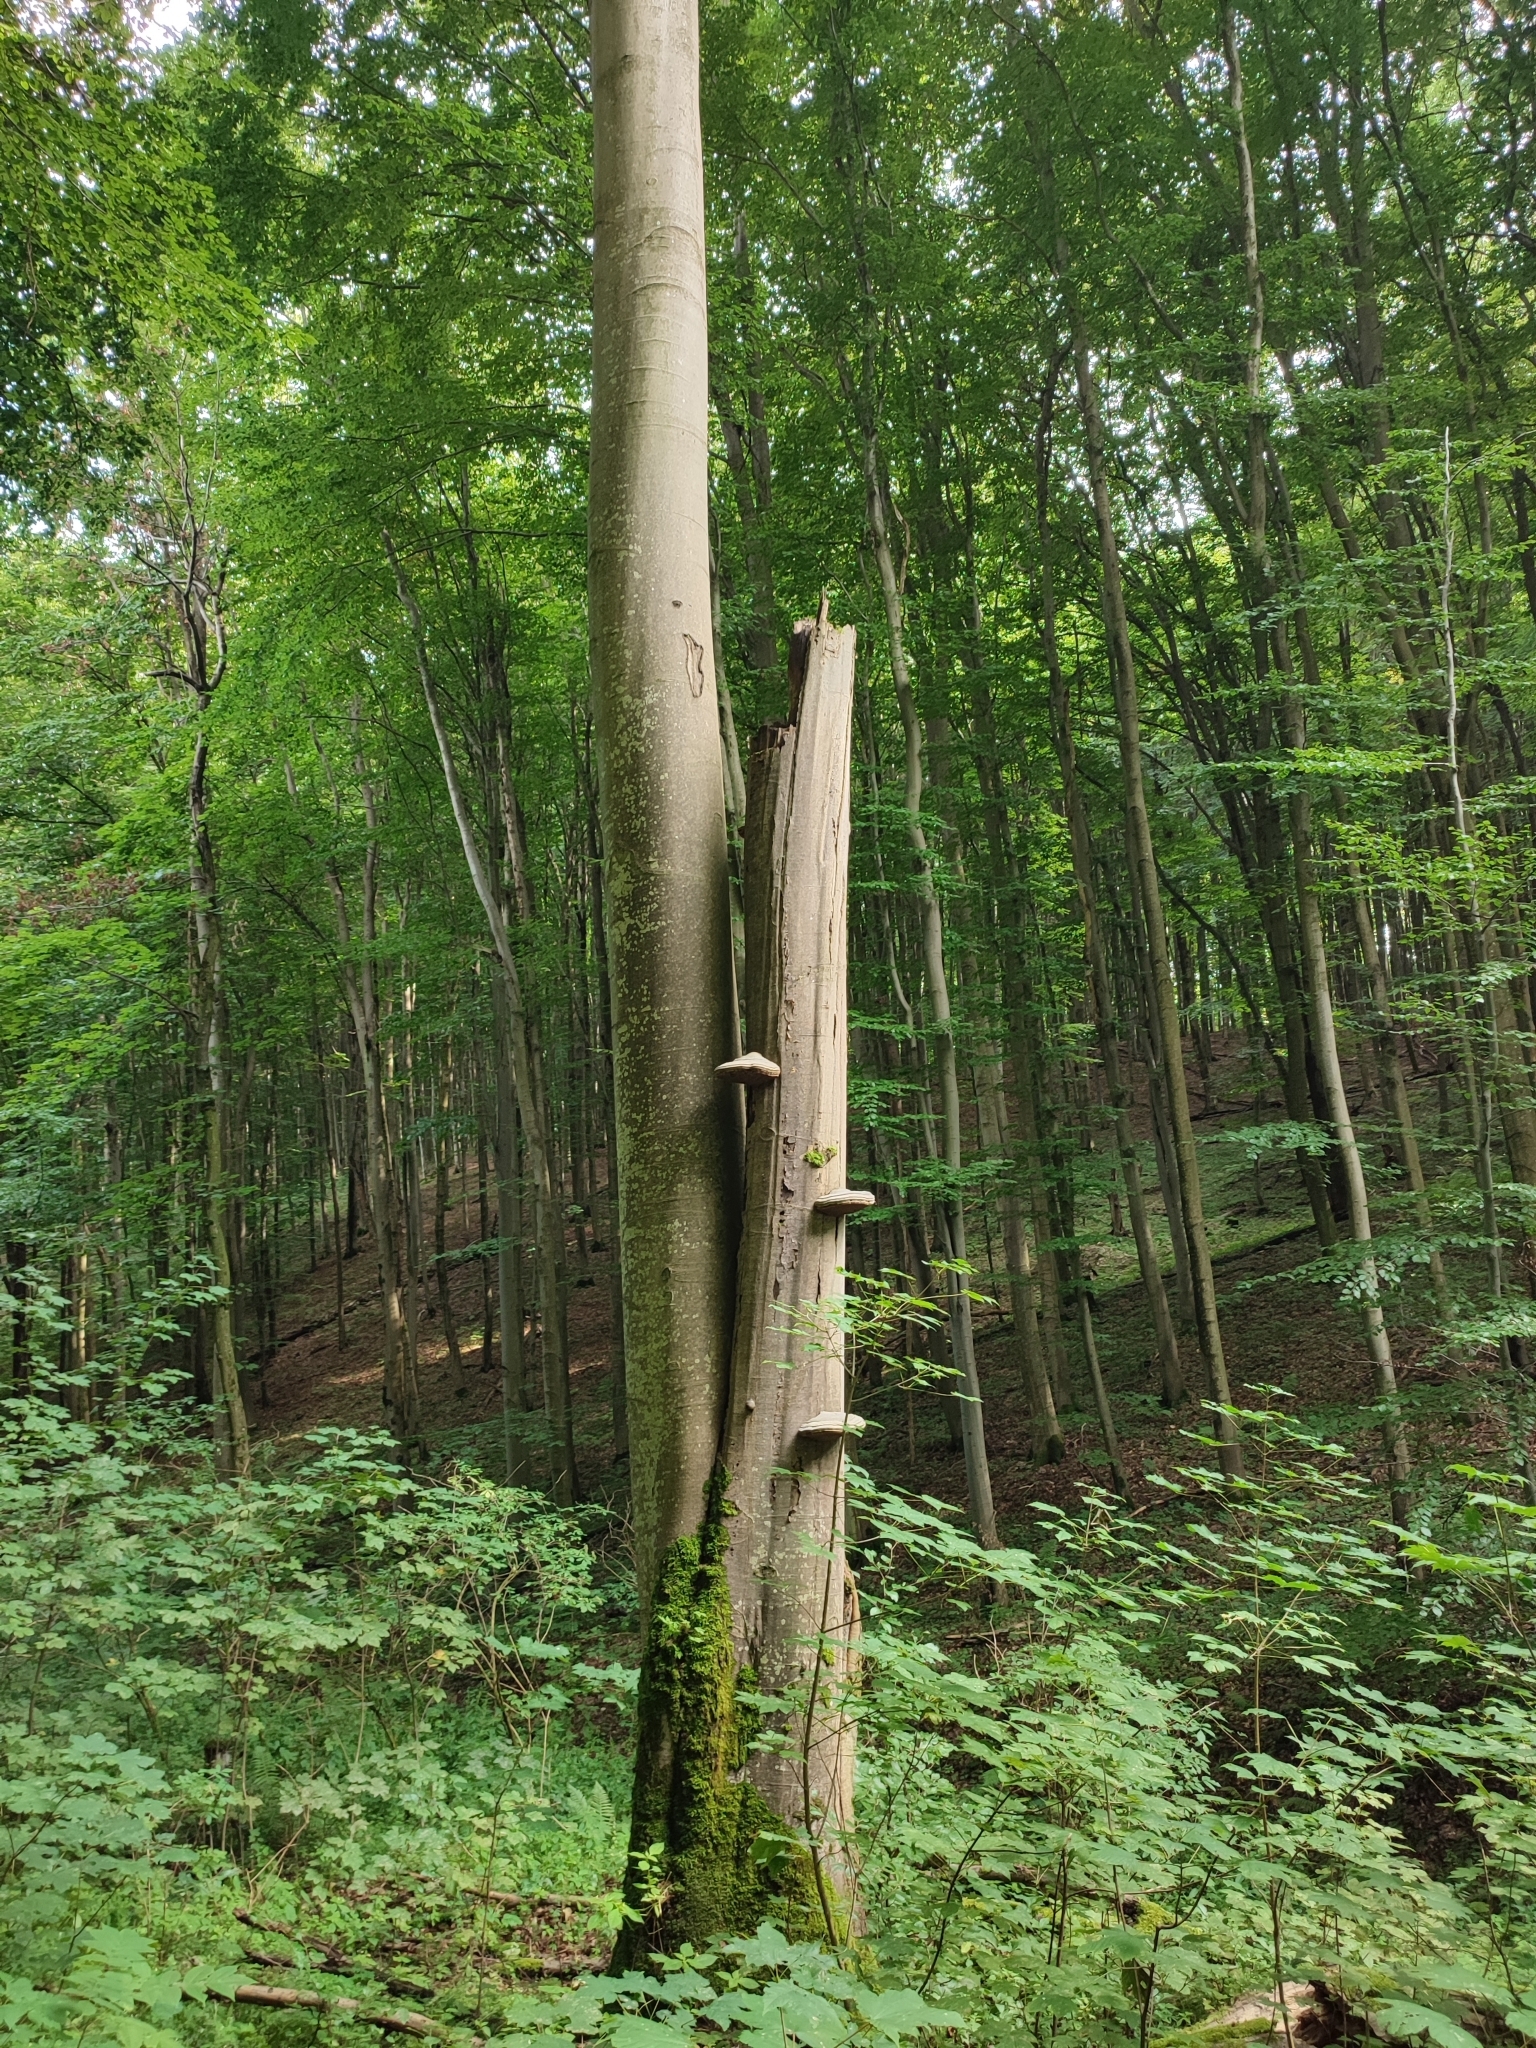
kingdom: Plantae
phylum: Tracheophyta
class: Magnoliopsida
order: Fagales
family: Fagaceae
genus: Fagus
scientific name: Fagus sylvatica
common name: Beech
